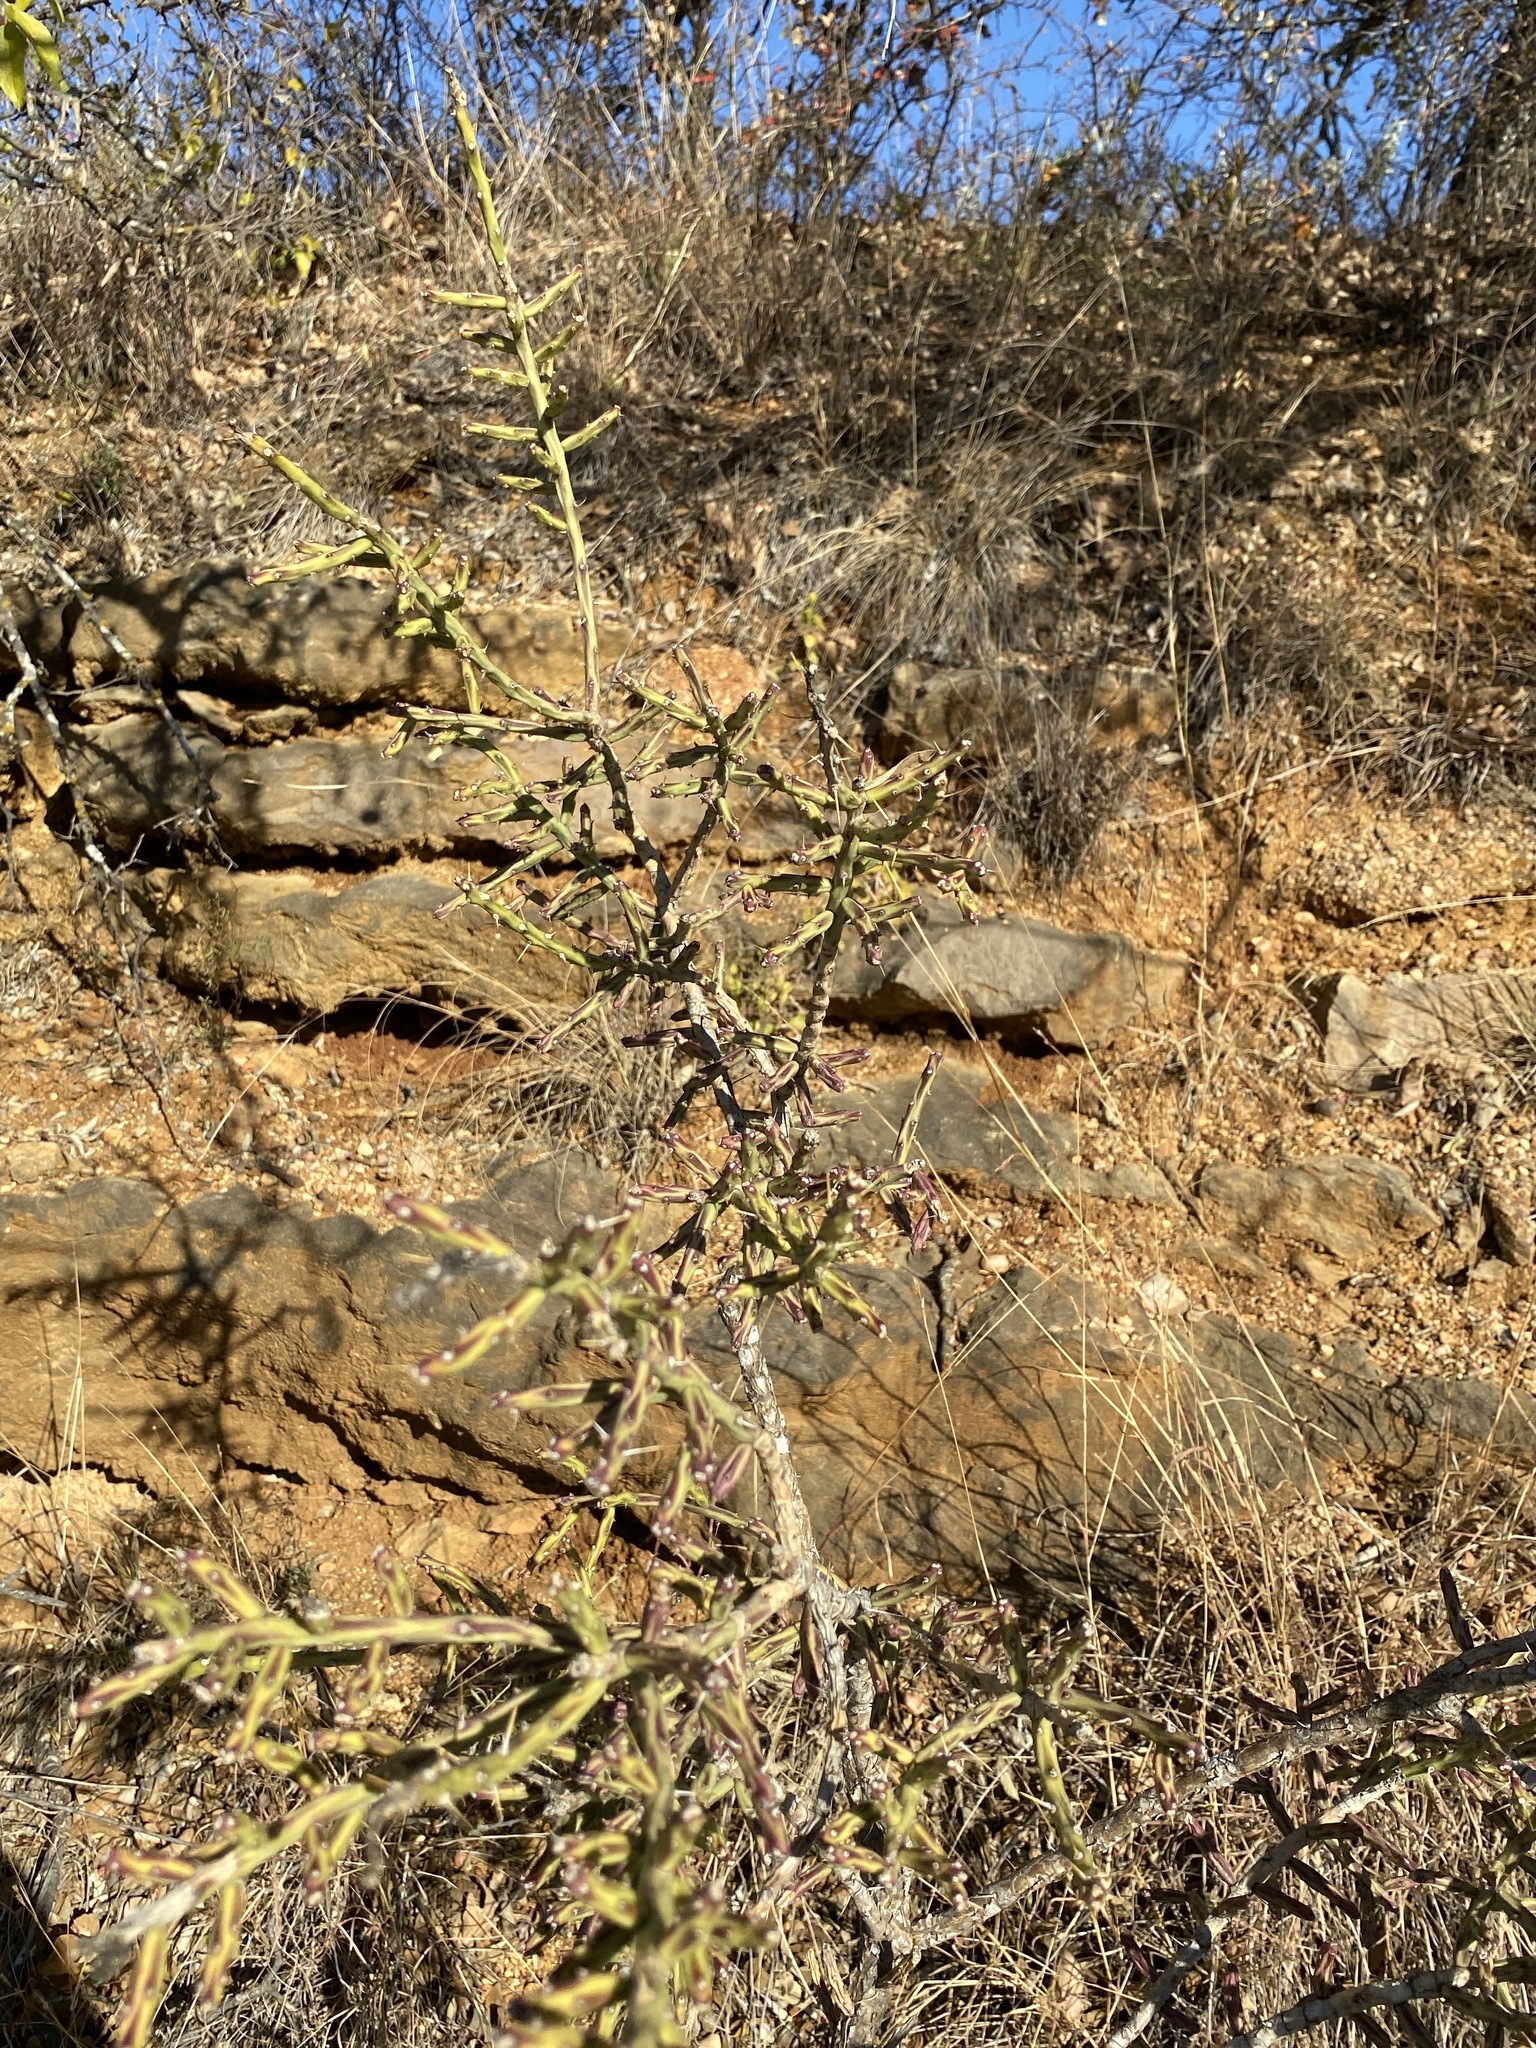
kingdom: Plantae
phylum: Tracheophyta
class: Magnoliopsida
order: Caryophyllales
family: Cactaceae
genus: Cylindropuntia
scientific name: Cylindropuntia leptocaulis
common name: Christmas cactus
